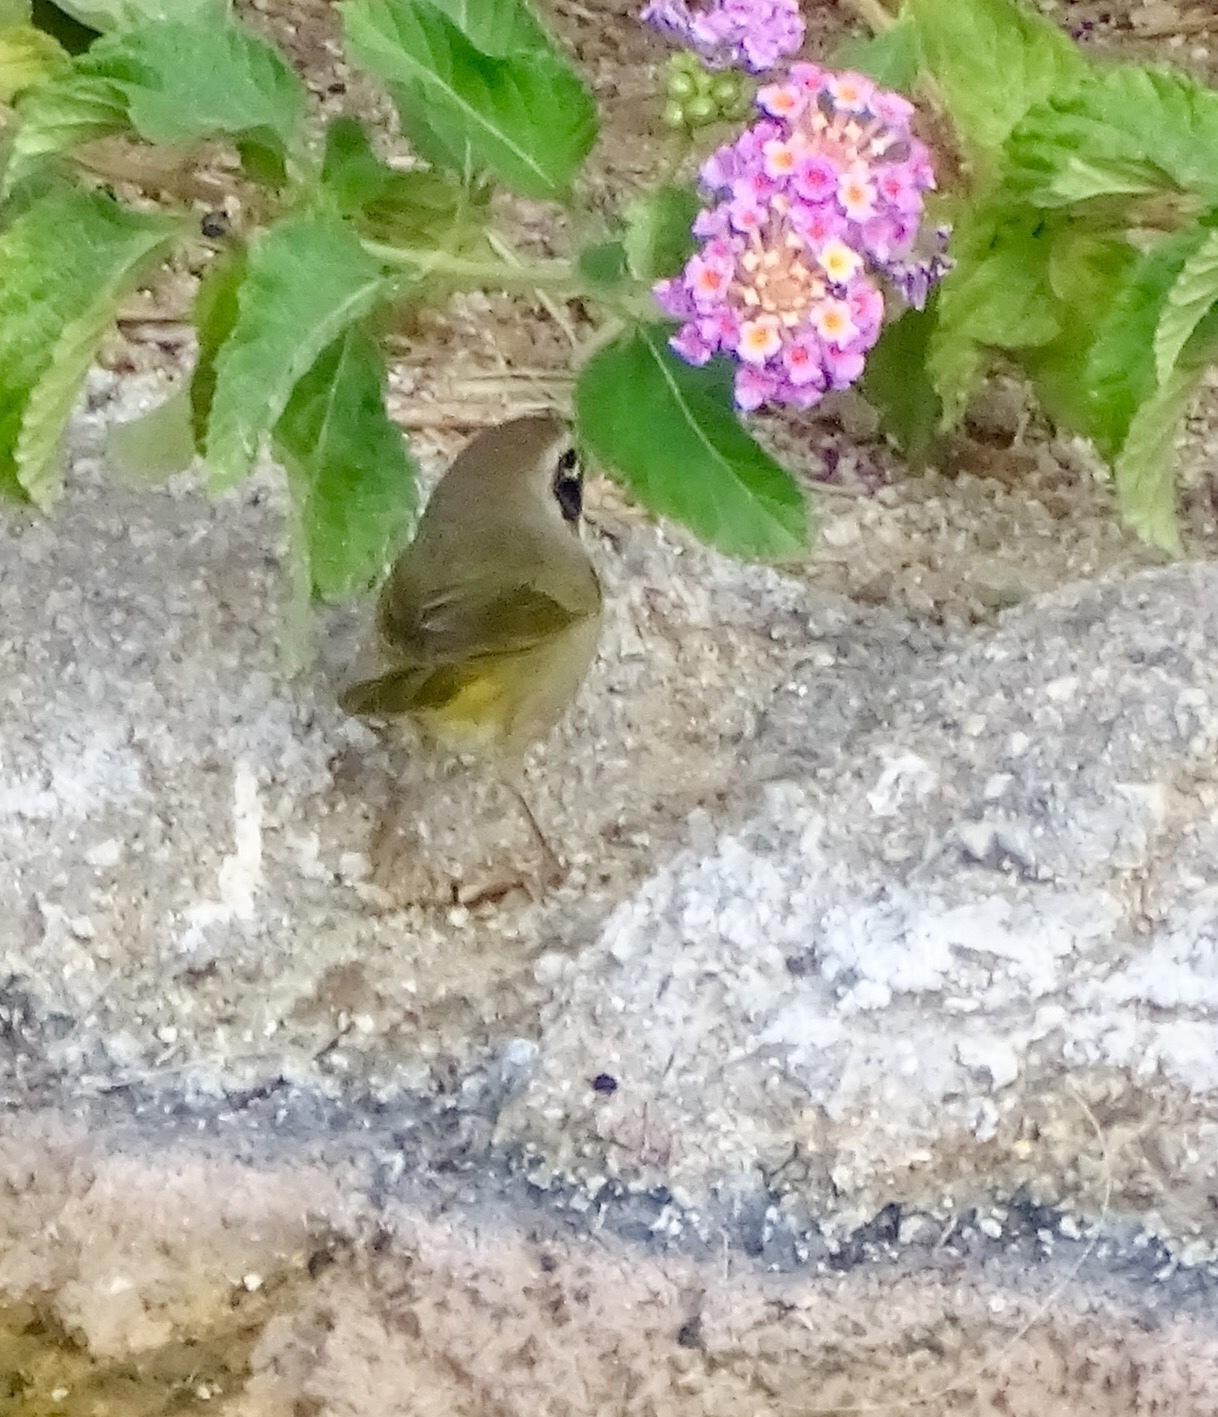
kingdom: Animalia
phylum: Chordata
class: Aves
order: Passeriformes
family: Parulidae
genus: Geothlypis
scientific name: Geothlypis trichas
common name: Common yellowthroat
